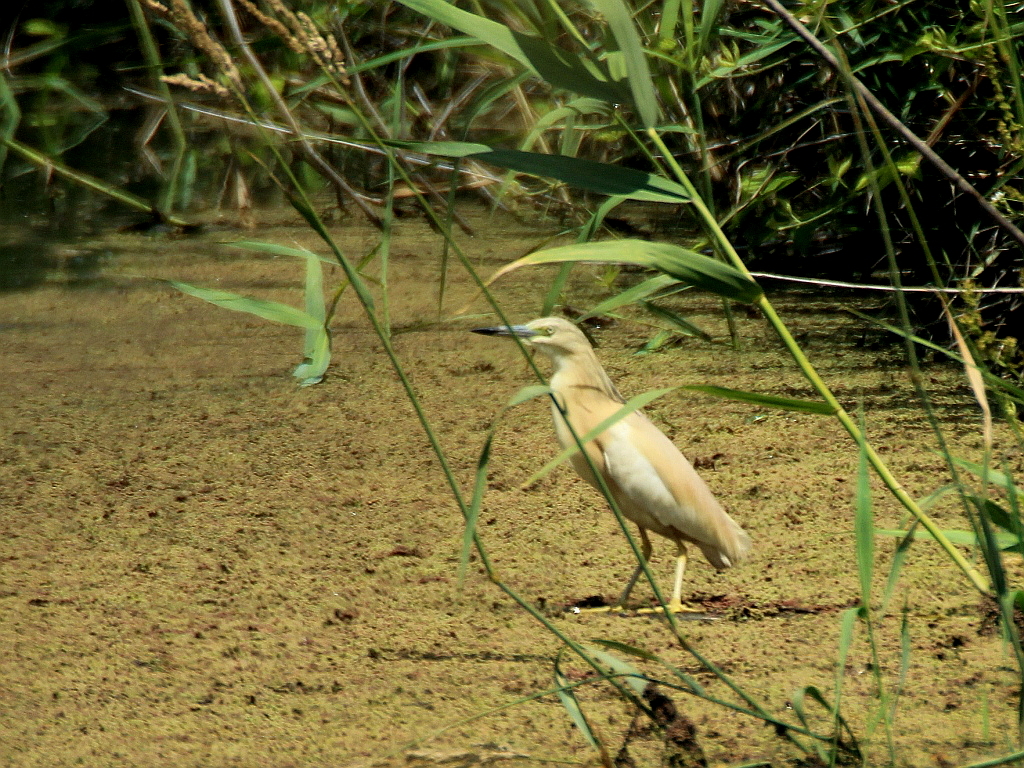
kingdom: Animalia
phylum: Chordata
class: Aves
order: Pelecaniformes
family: Ardeidae
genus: Ardeola
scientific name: Ardeola ralloides
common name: Squacco heron
